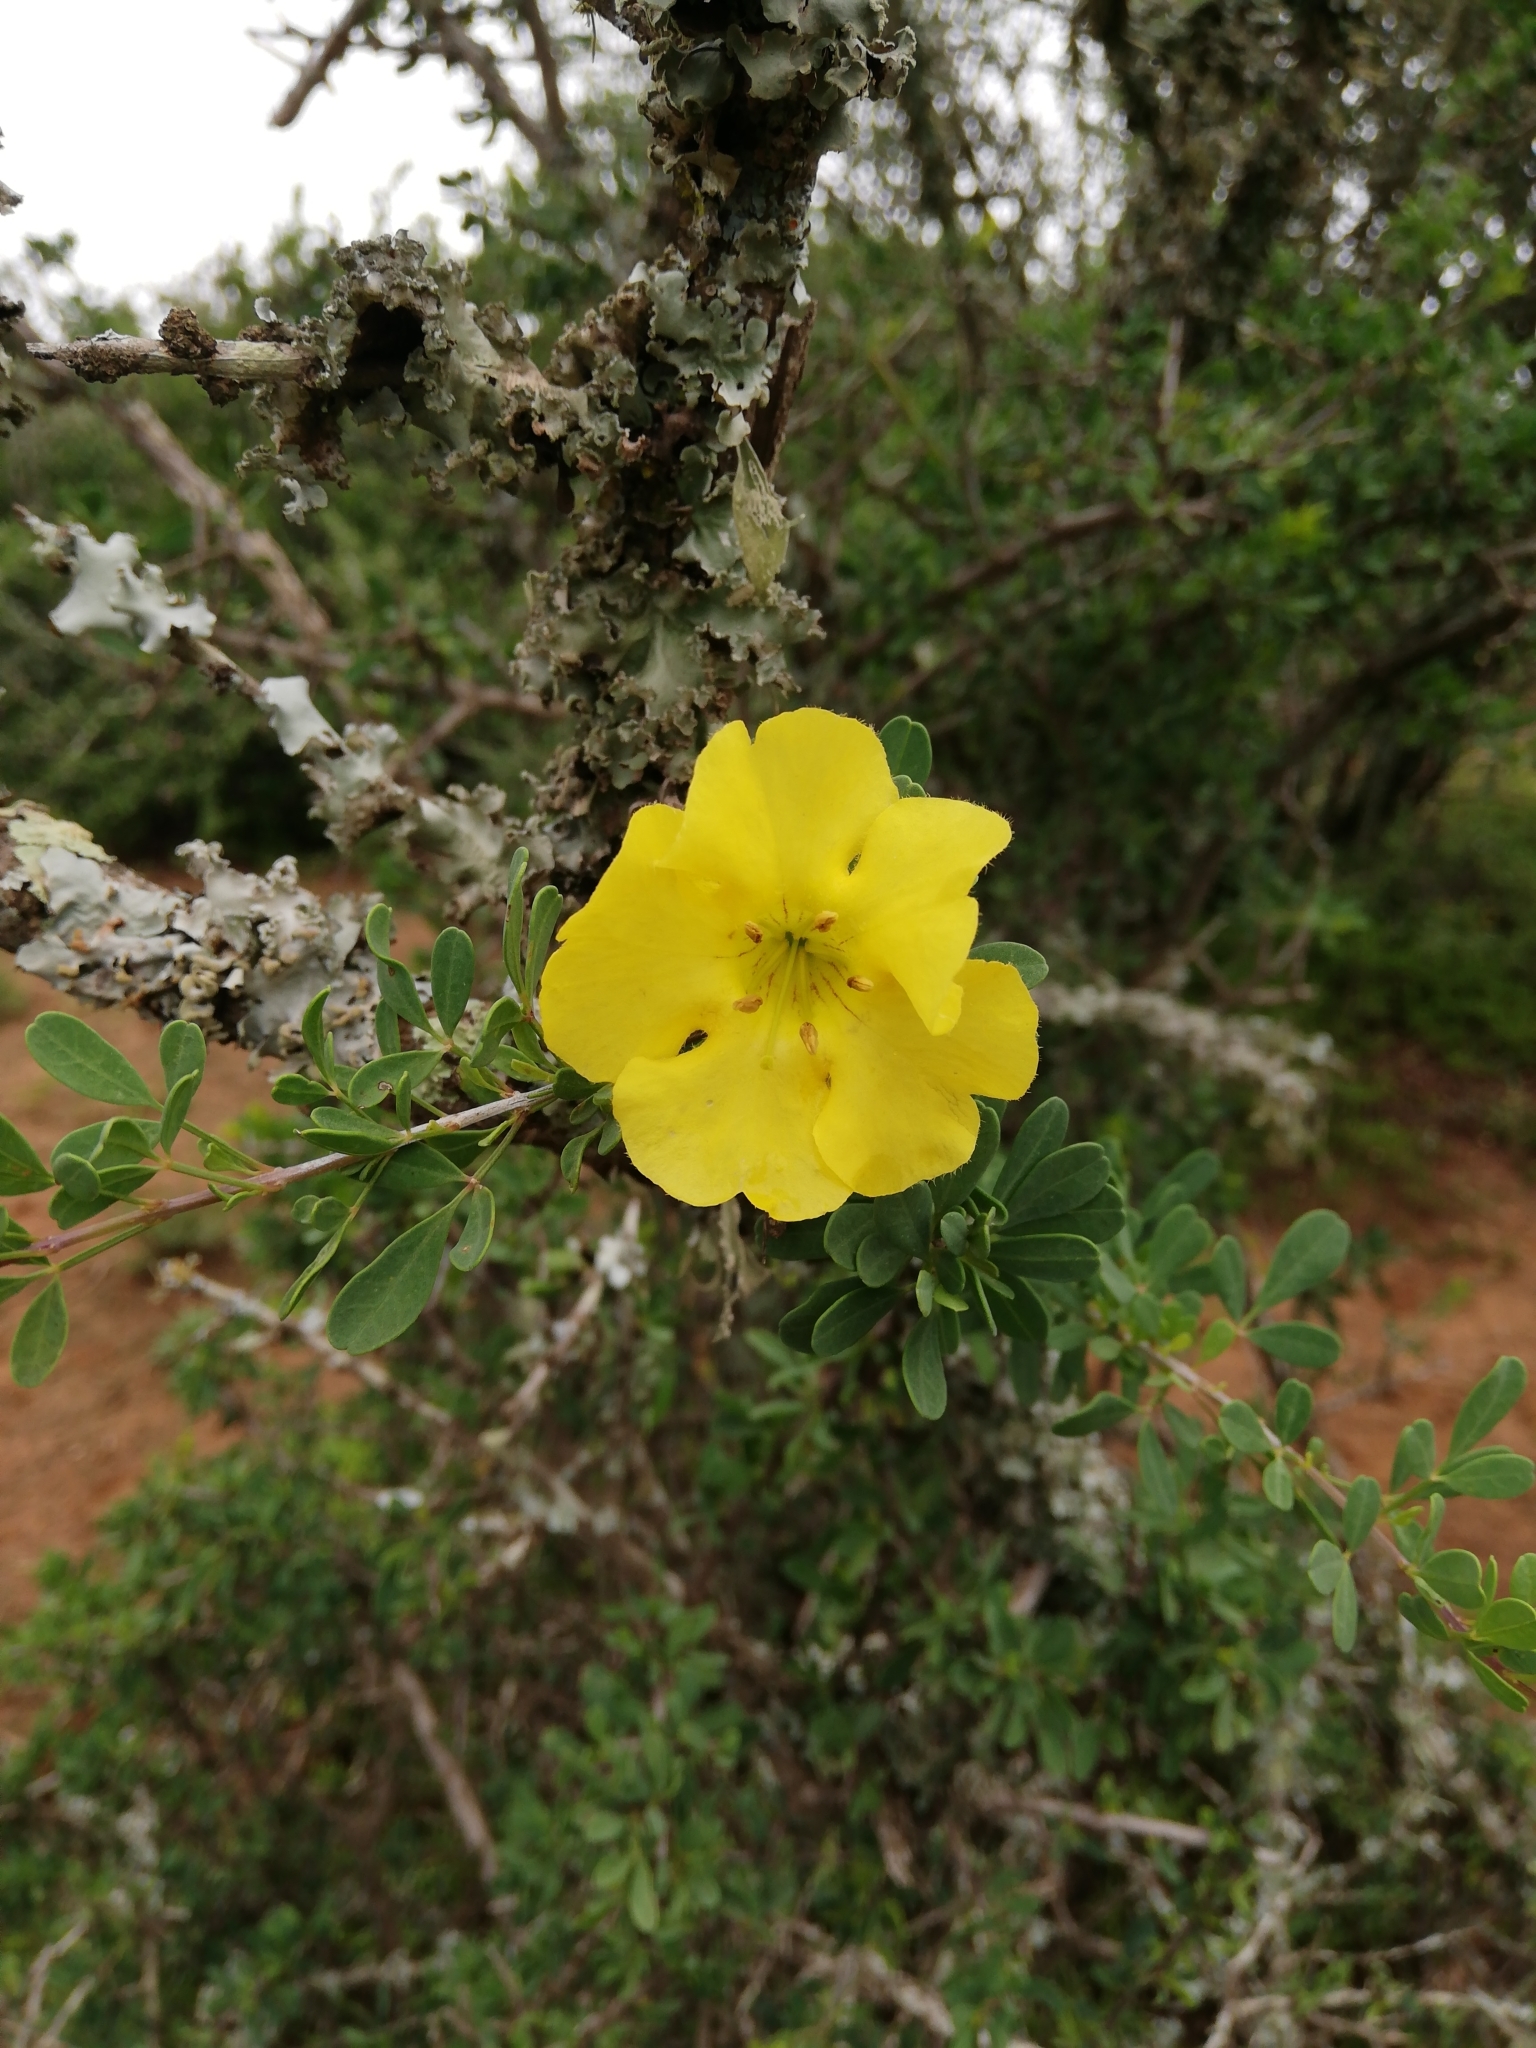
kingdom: Plantae
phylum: Tracheophyta
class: Magnoliopsida
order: Lamiales
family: Bignoniaceae
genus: Rhigozum
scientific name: Rhigozum obovatum
